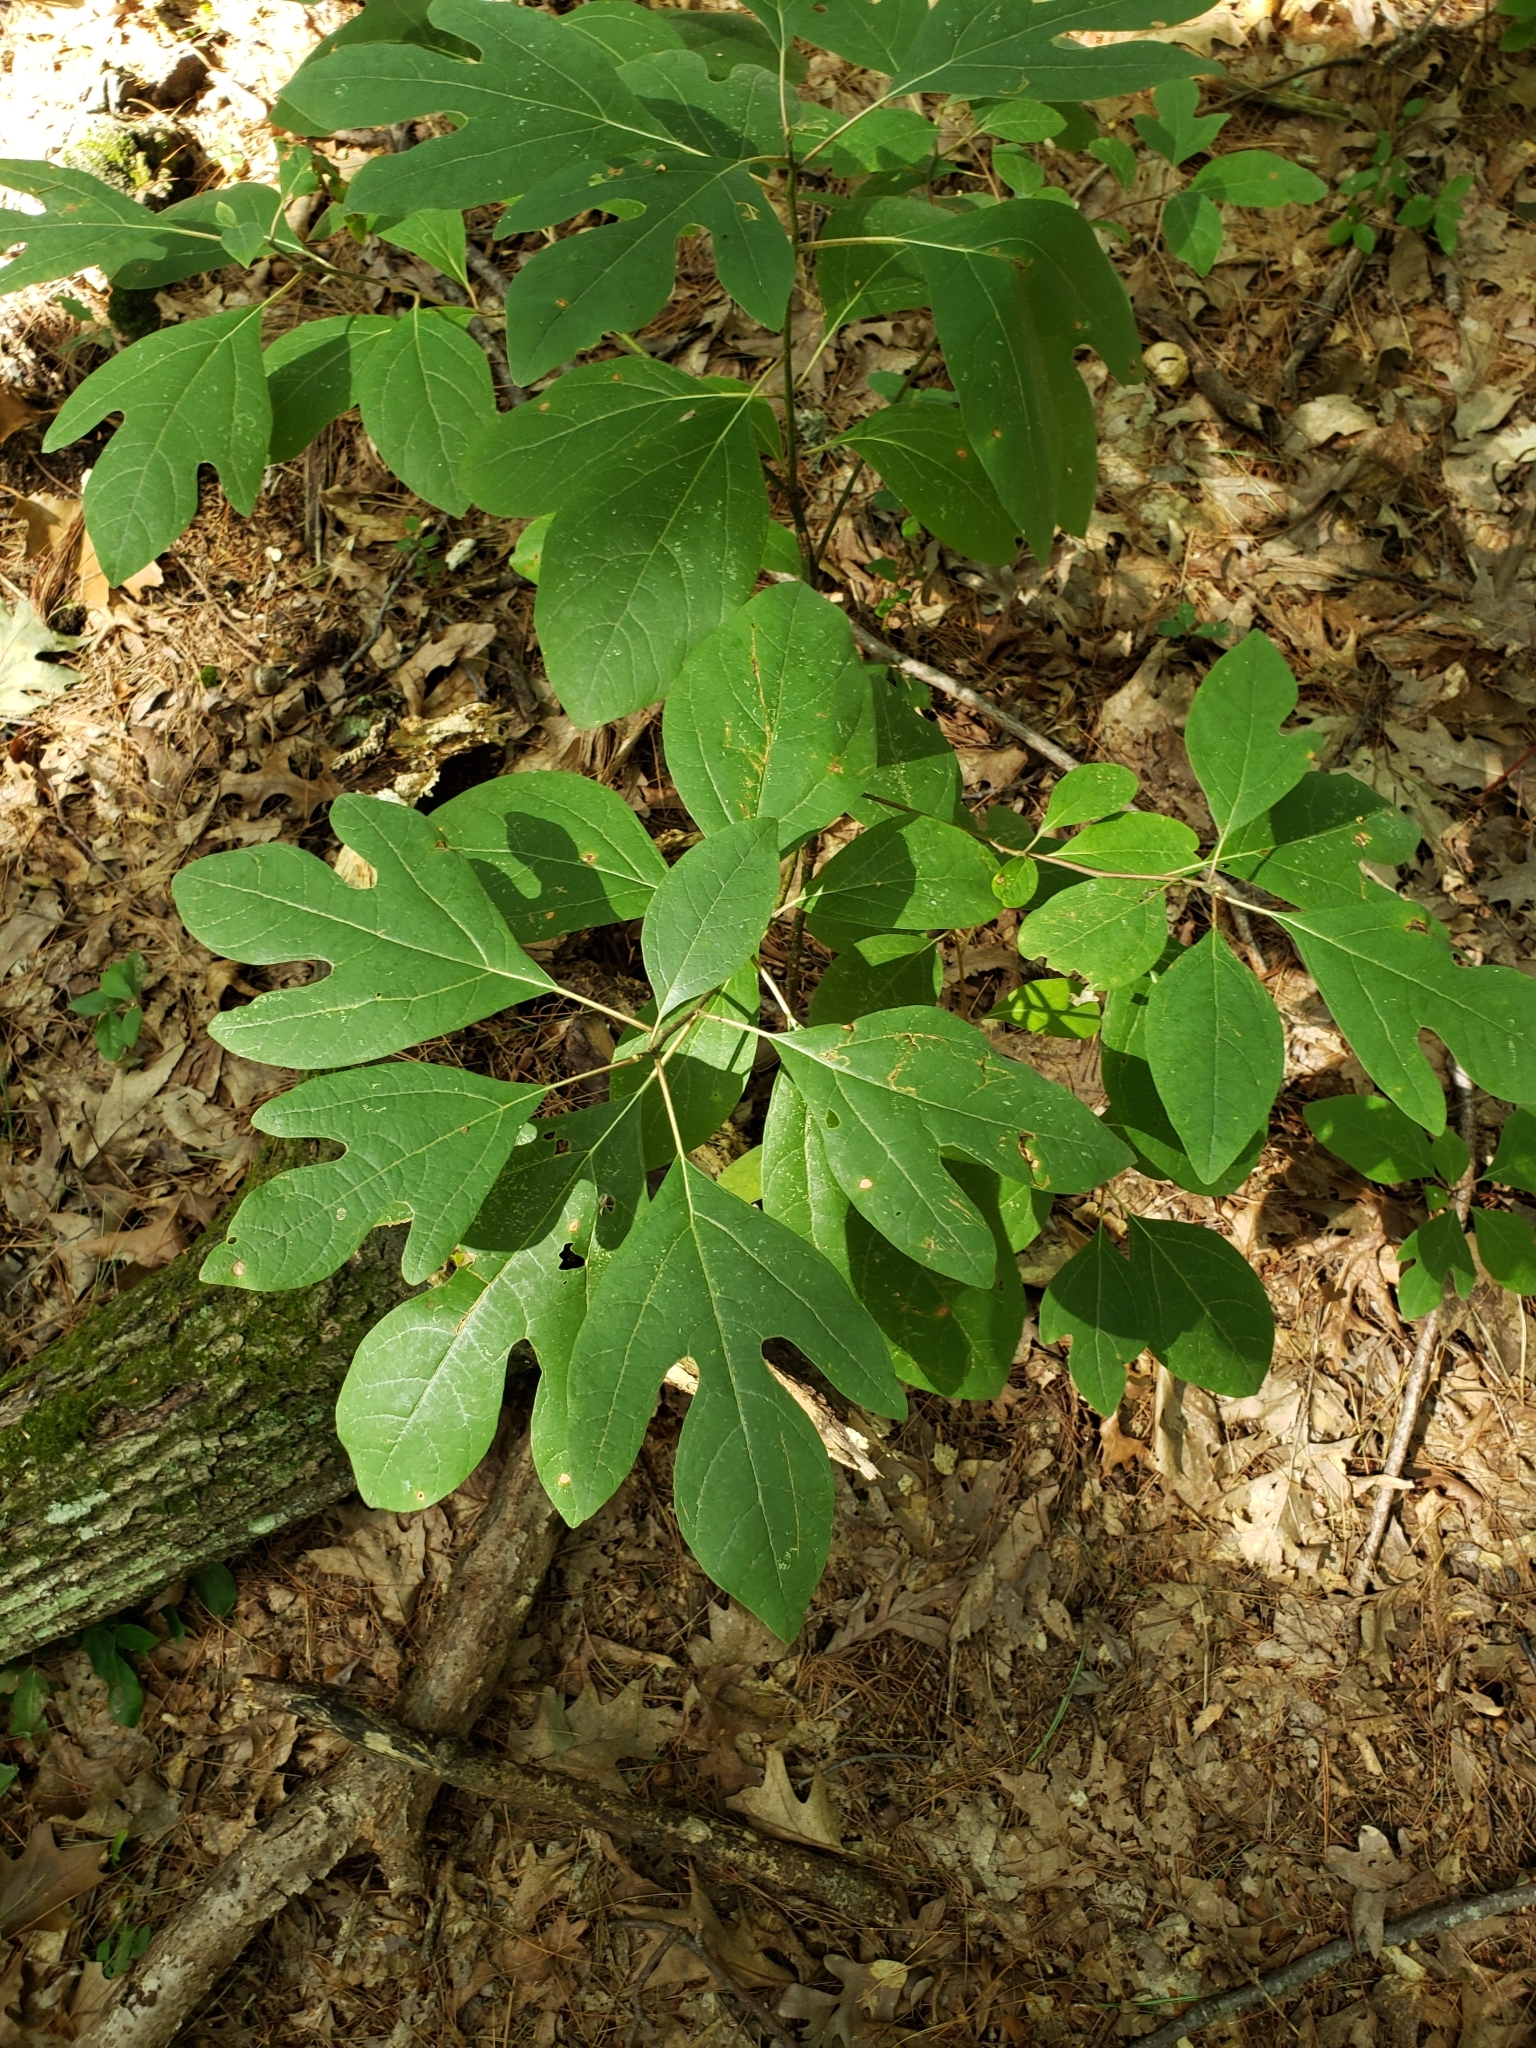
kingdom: Plantae
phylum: Tracheophyta
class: Magnoliopsida
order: Laurales
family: Lauraceae
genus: Sassafras
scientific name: Sassafras albidum
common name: Sassafras
